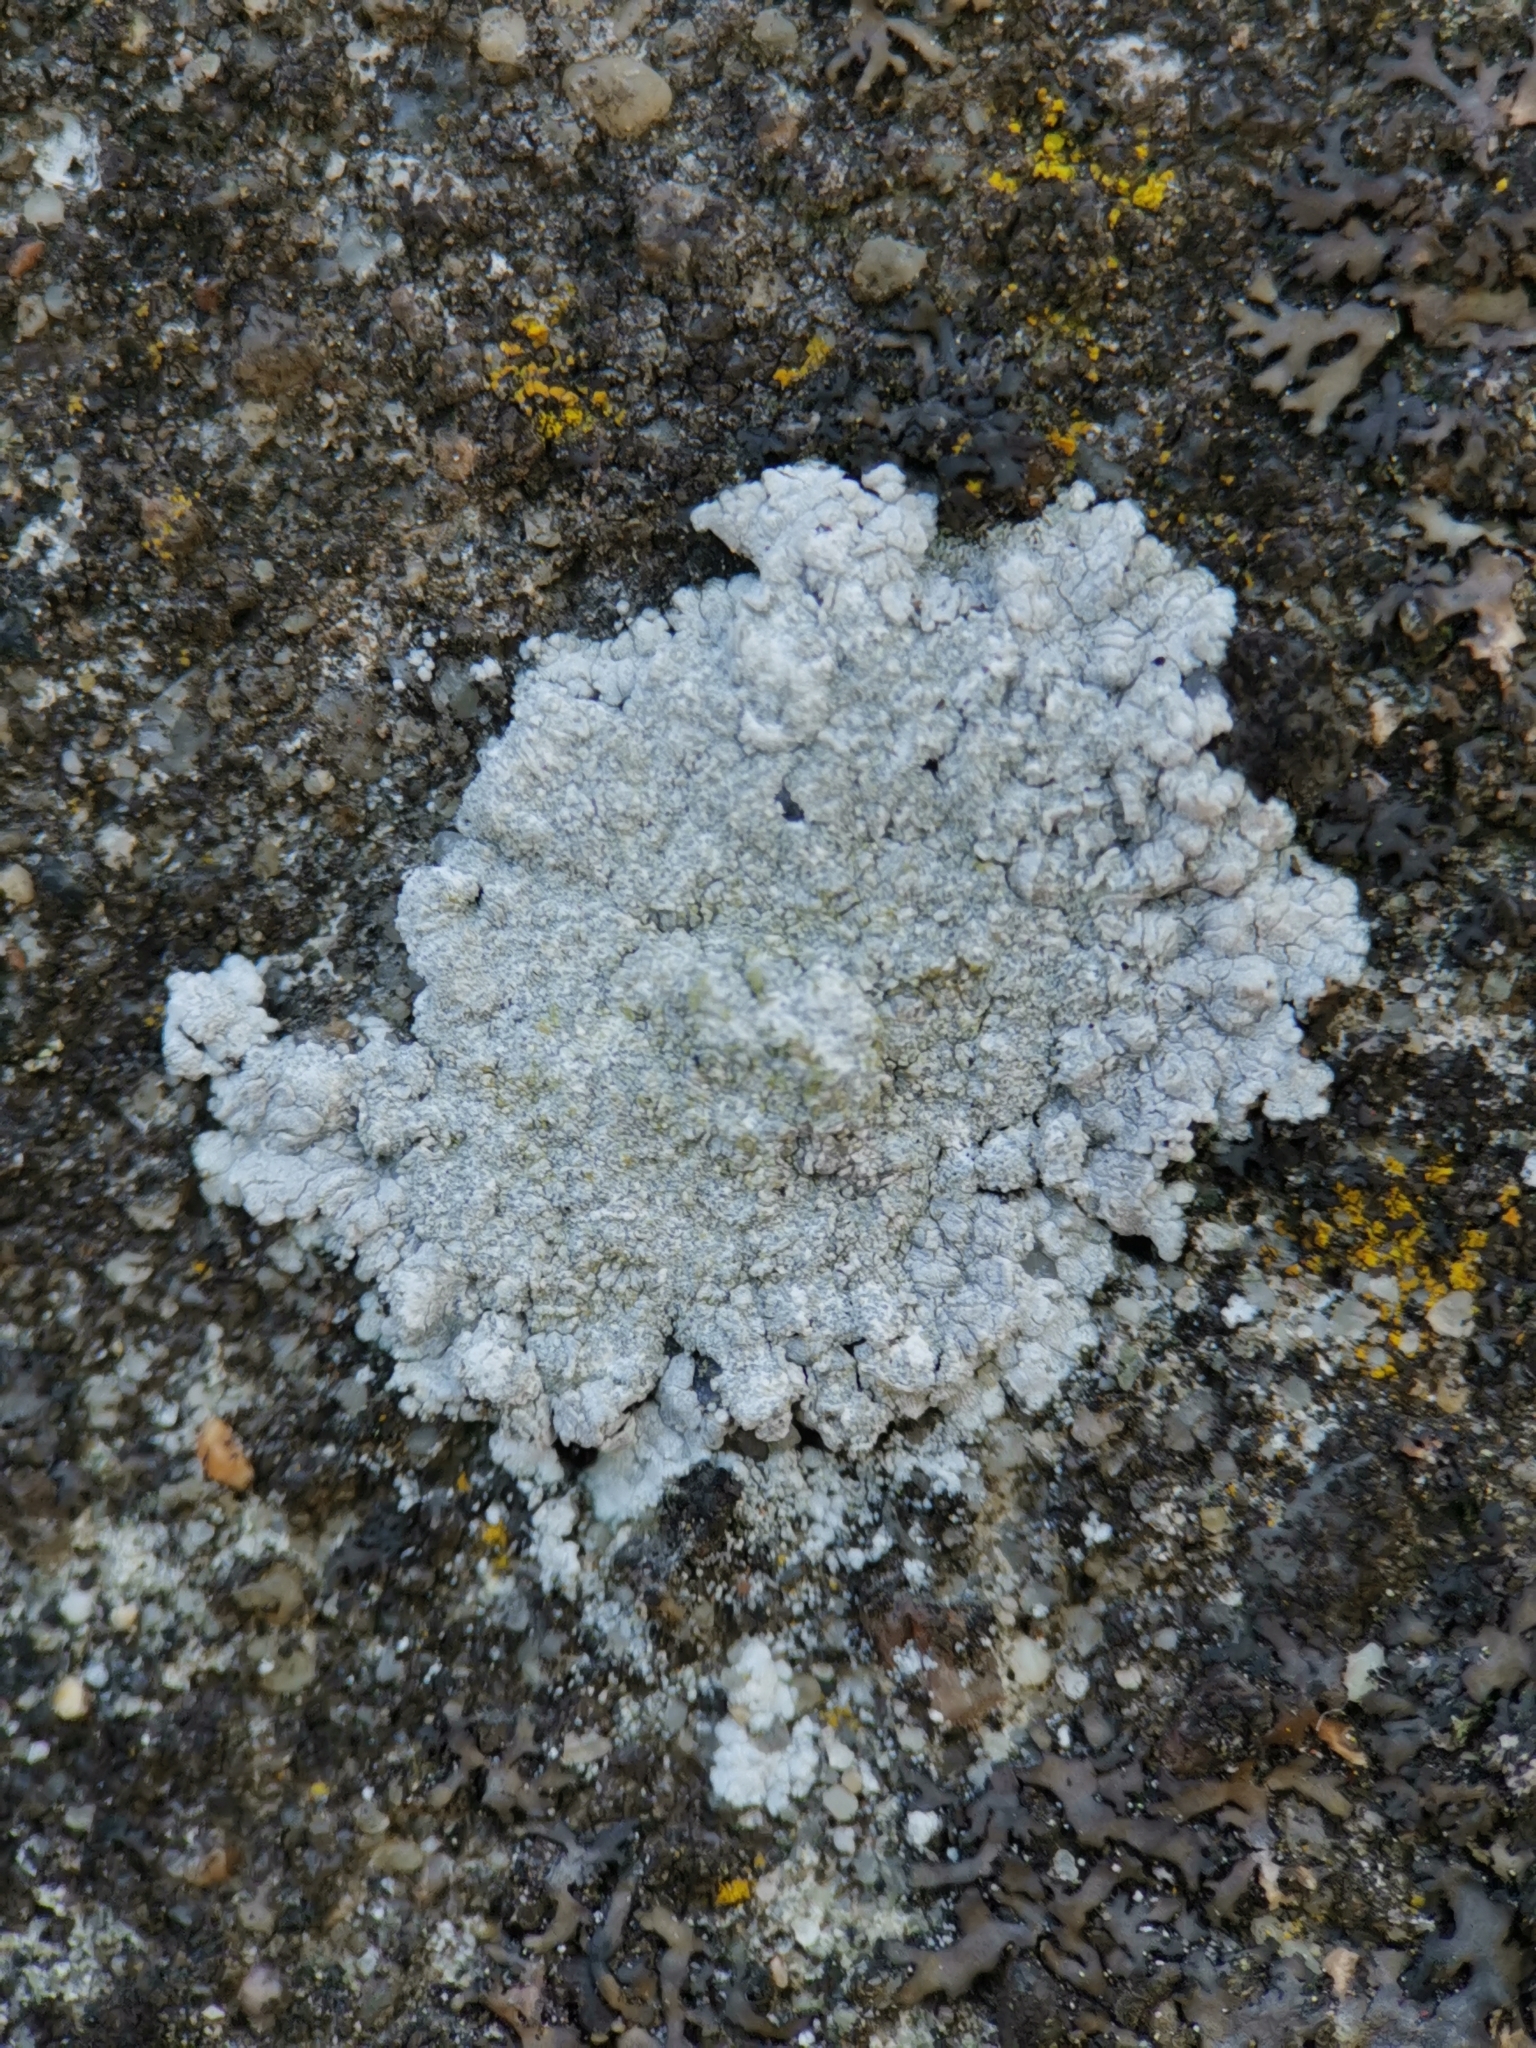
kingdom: Fungi
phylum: Ascomycota
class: Lecanoromycetes
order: Teloschistales
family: Teloschistaceae
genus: Kuettlingeria
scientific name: Kuettlingeria teicholyta
